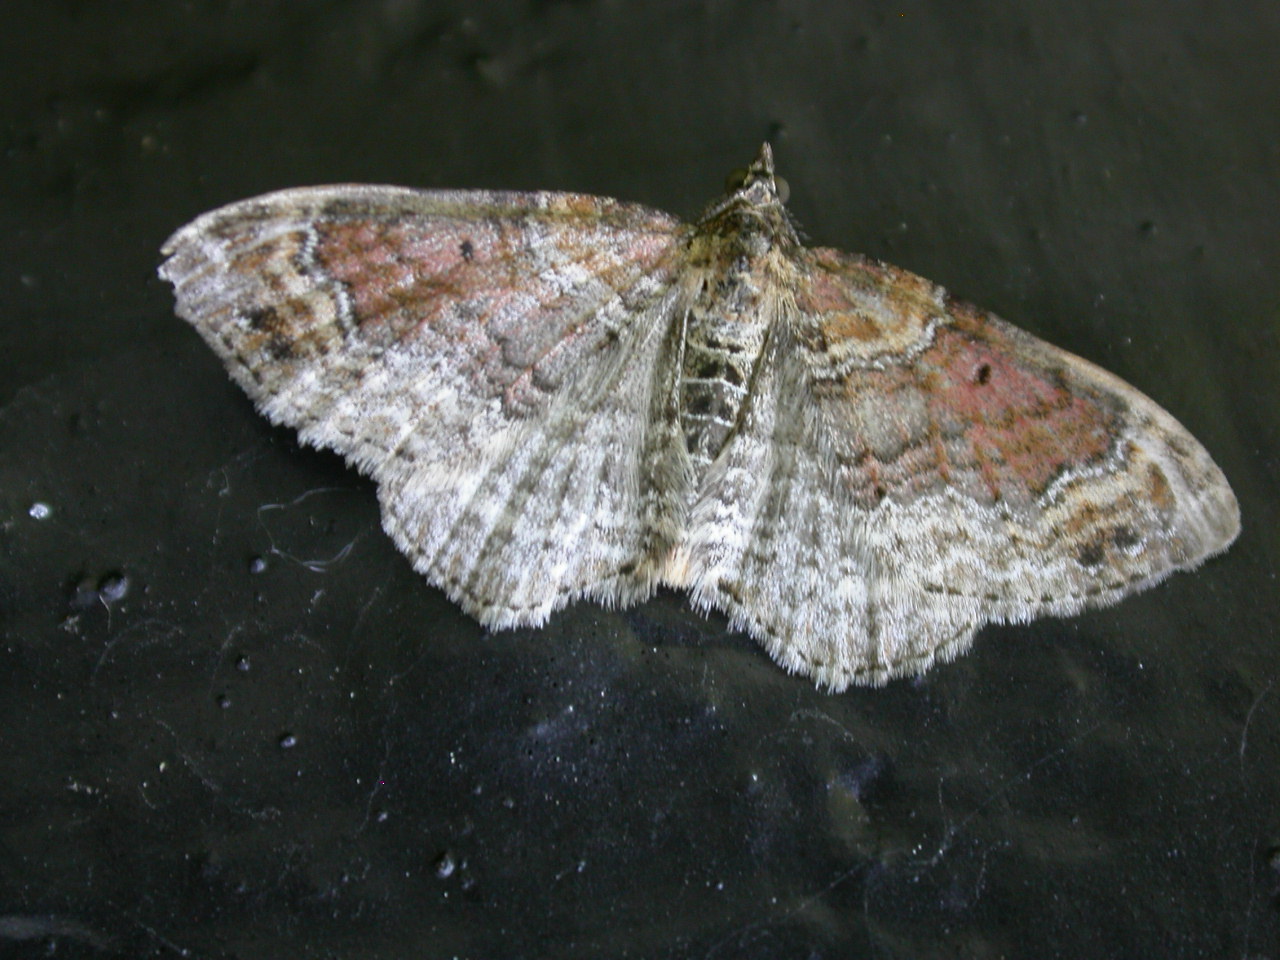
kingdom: Animalia
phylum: Arthropoda
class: Insecta
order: Lepidoptera
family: Geometridae
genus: Xanthorhoe
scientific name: Xanthorhoe spadicearia
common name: Red twin-spot carpet
